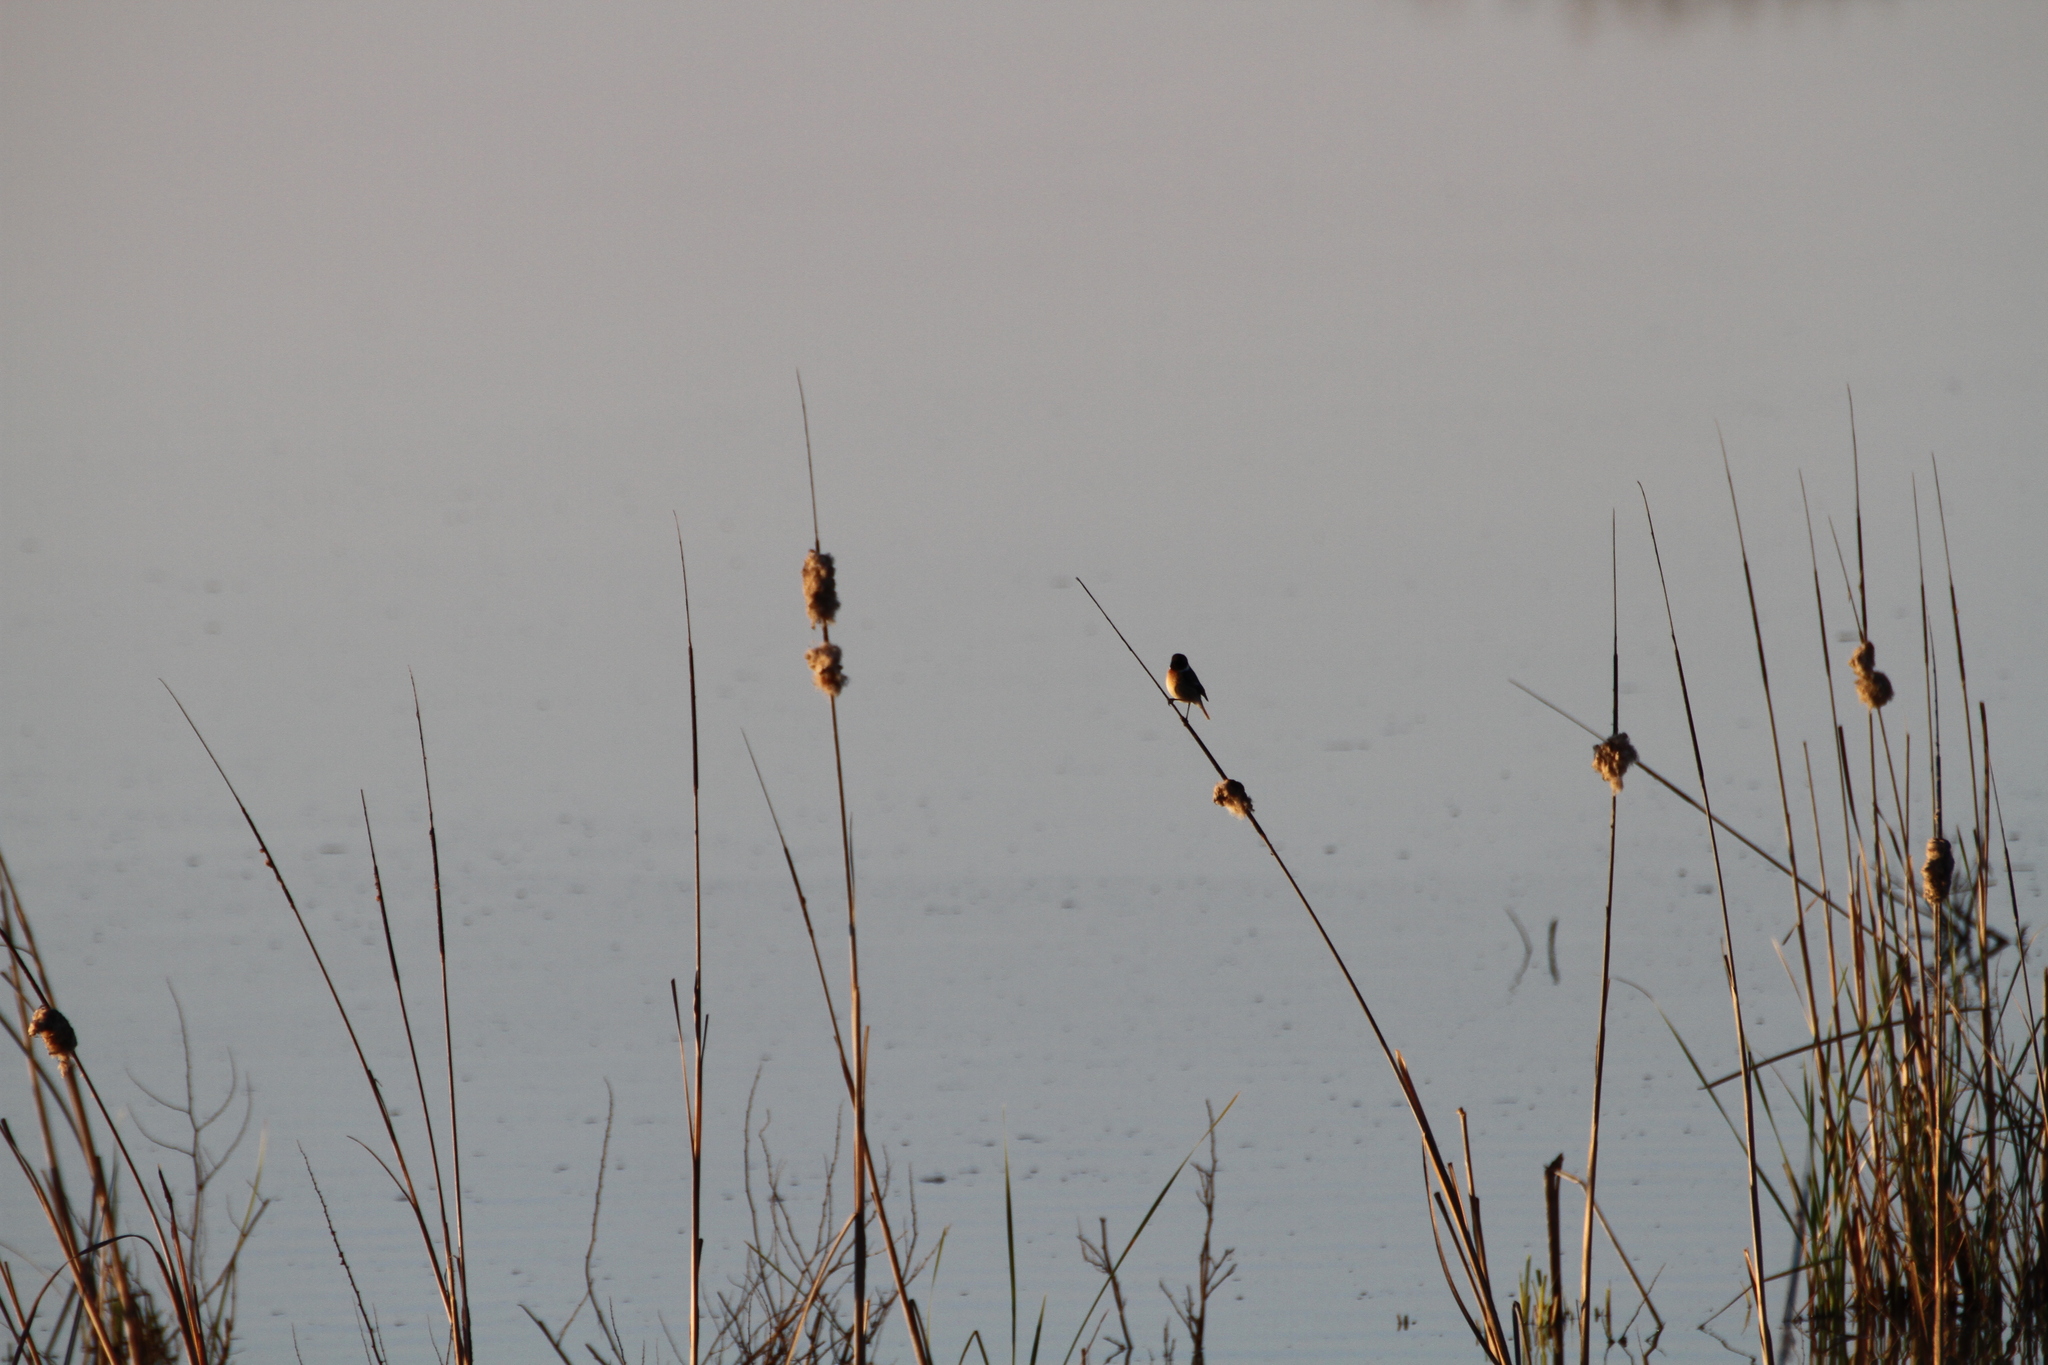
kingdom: Animalia
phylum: Chordata
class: Aves
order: Passeriformes
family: Muscicapidae
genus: Saxicola
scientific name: Saxicola rubicola
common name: European stonechat
